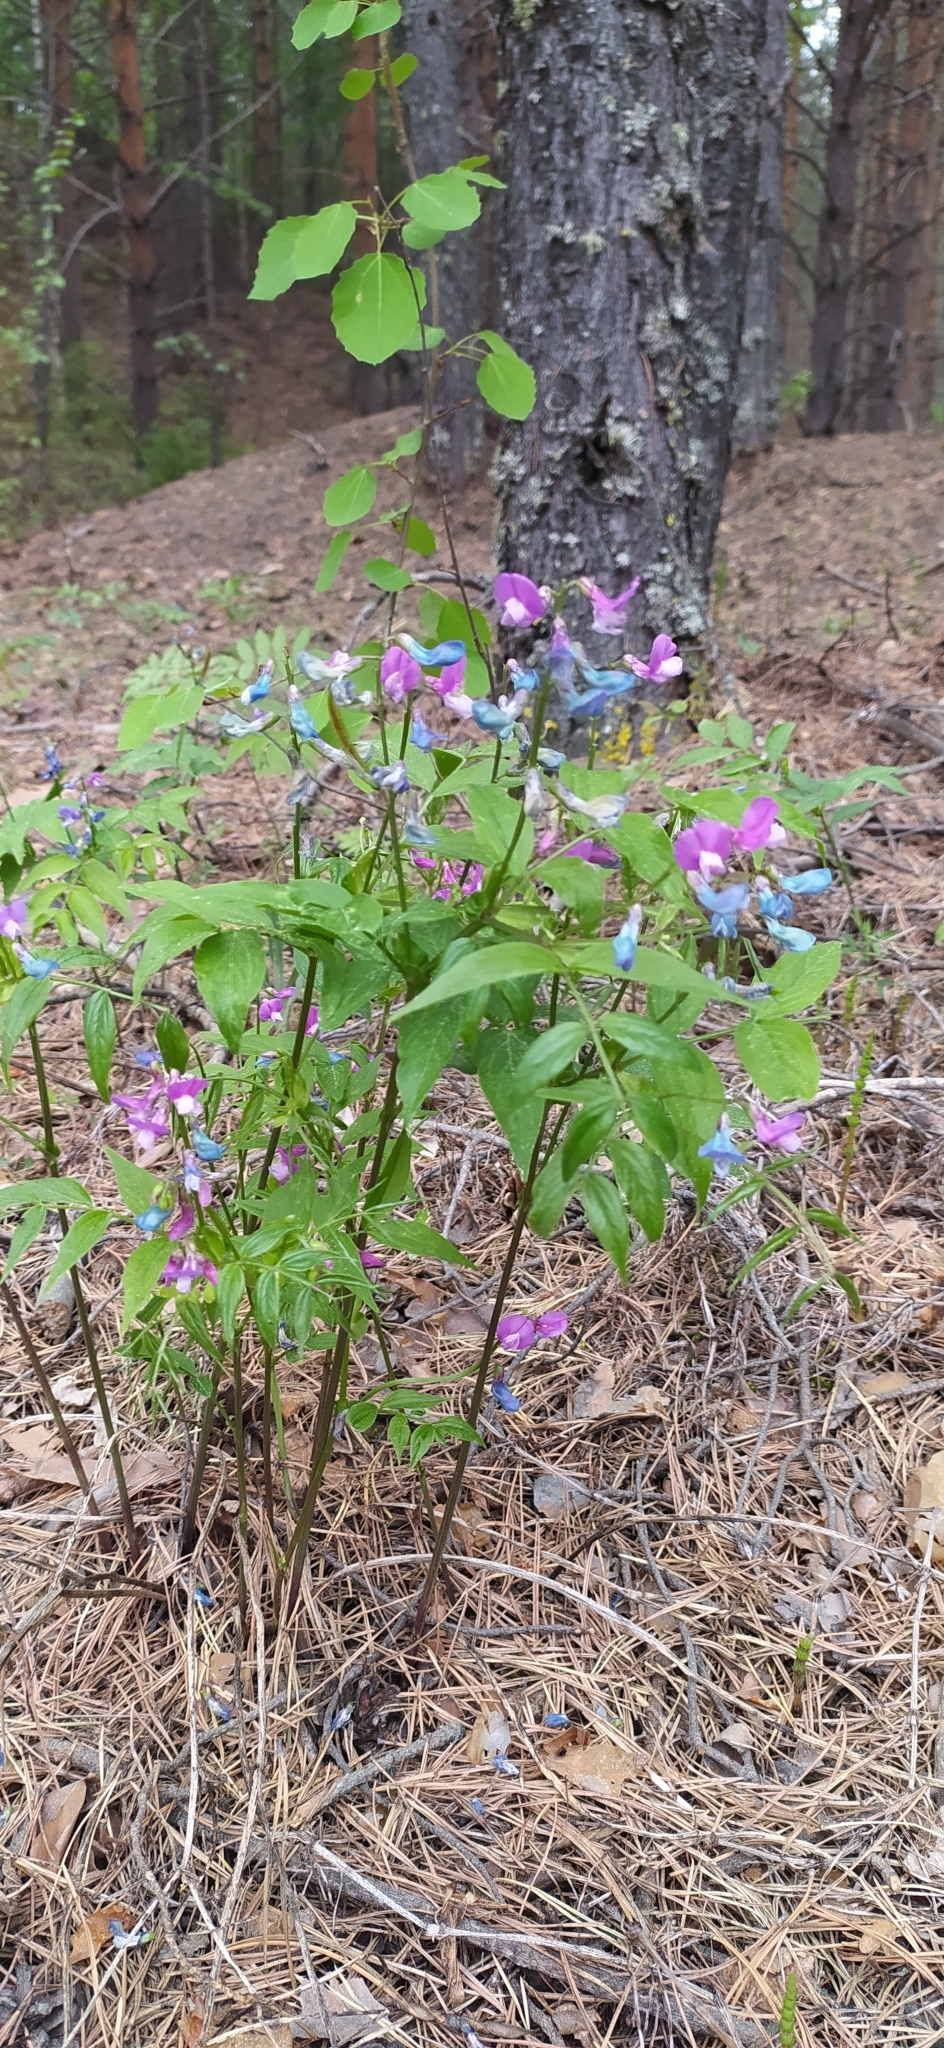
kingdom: Plantae
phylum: Tracheophyta
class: Magnoliopsida
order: Fabales
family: Fabaceae
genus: Lathyrus
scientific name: Lathyrus vernus
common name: Spring pea
